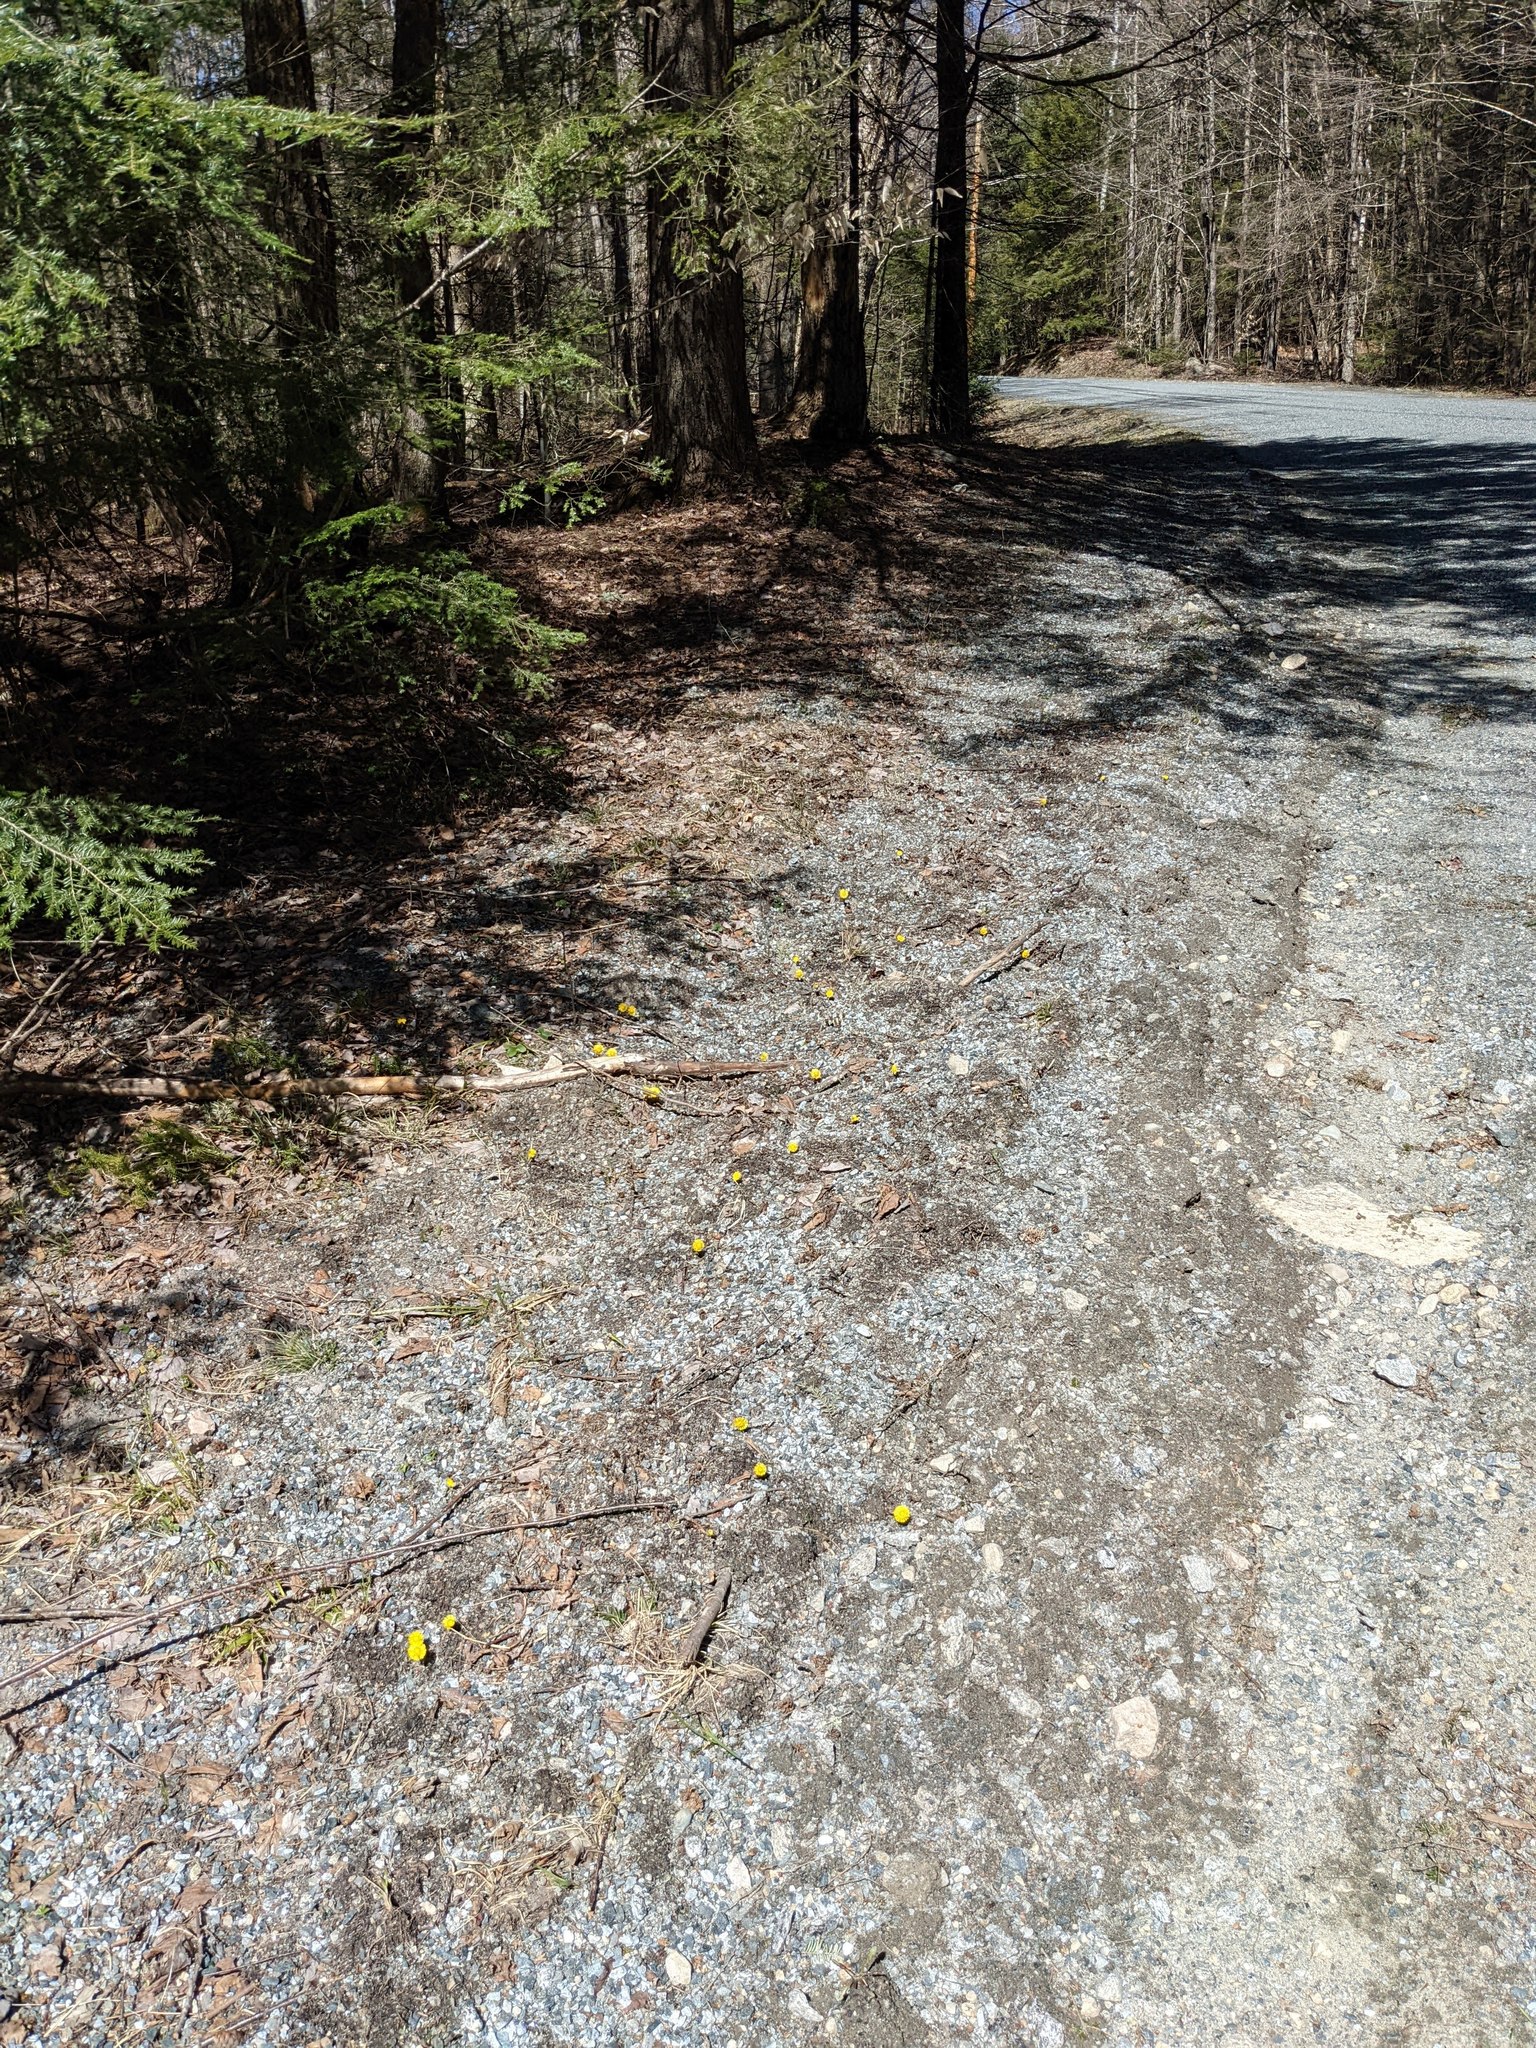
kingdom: Plantae
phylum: Tracheophyta
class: Magnoliopsida
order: Asterales
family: Asteraceae
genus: Tussilago
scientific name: Tussilago farfara
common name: Coltsfoot
